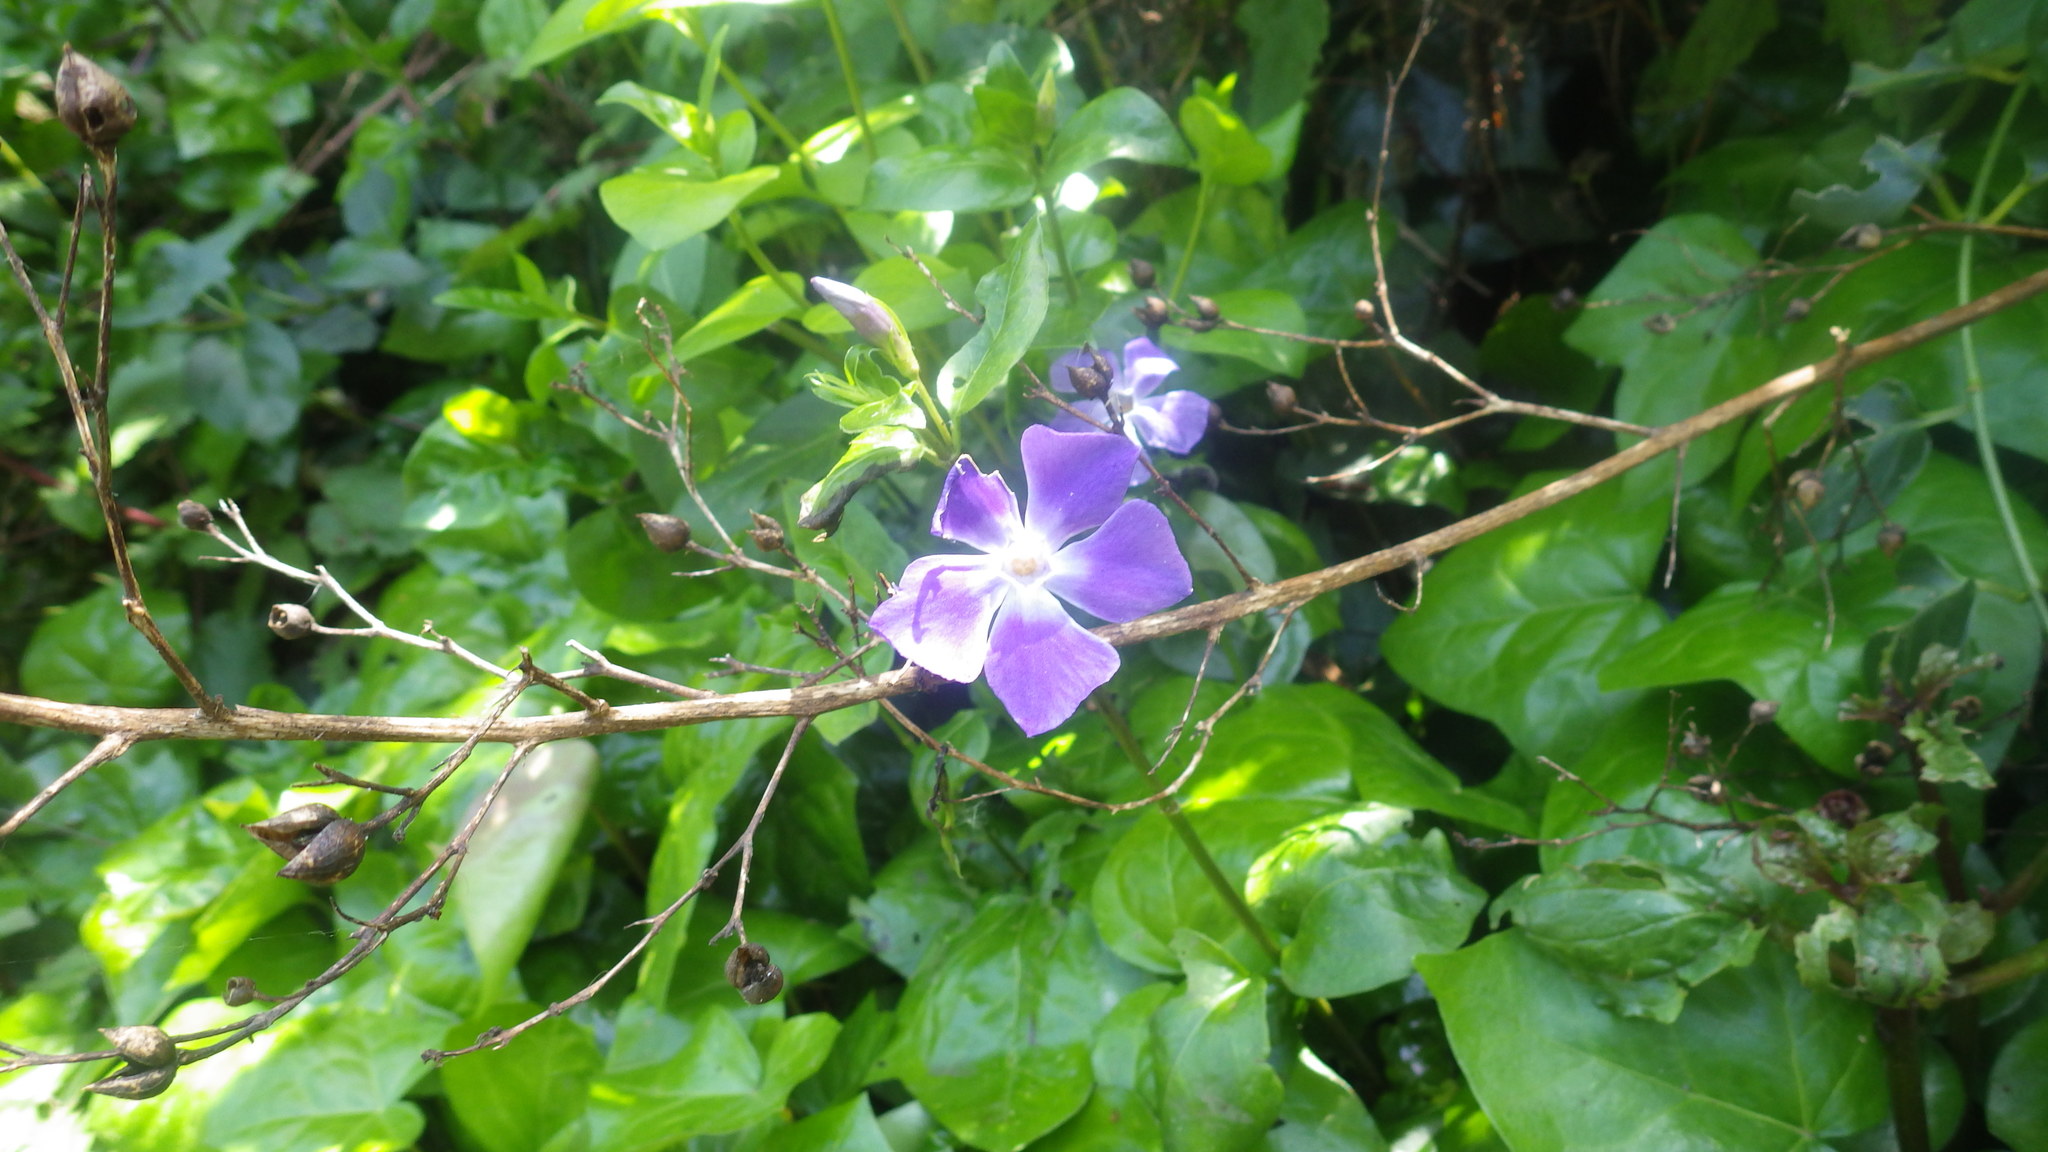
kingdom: Plantae
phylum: Tracheophyta
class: Magnoliopsida
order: Gentianales
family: Apocynaceae
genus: Vinca
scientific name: Vinca major
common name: Greater periwinkle
